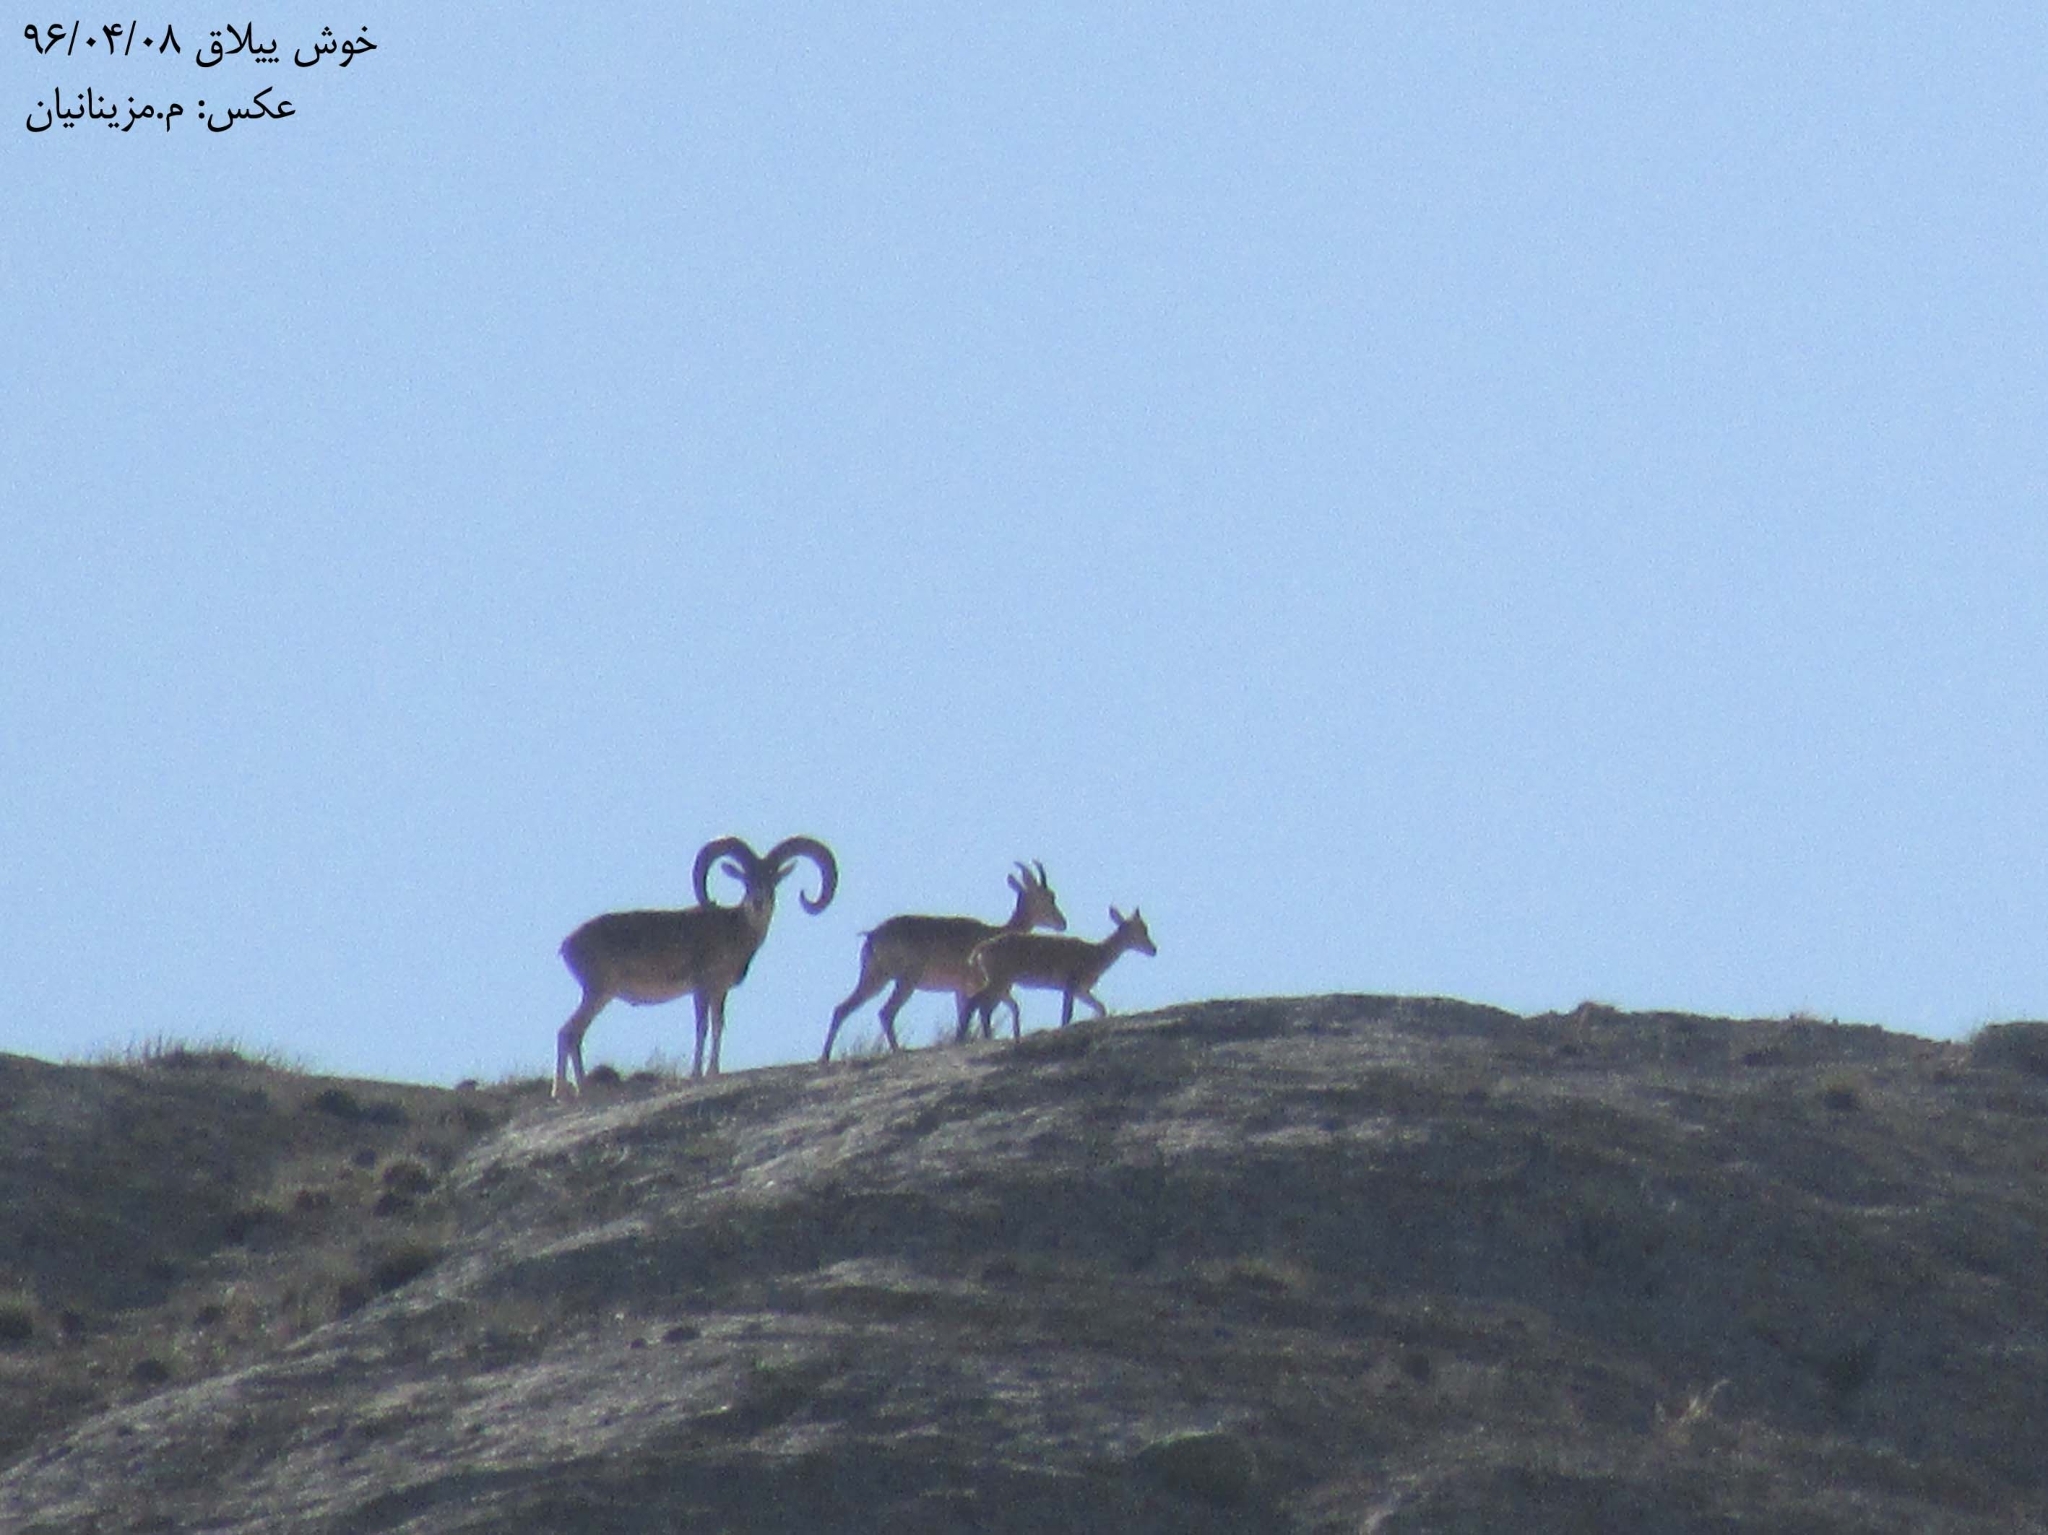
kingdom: Animalia
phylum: Chordata
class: Mammalia
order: Artiodactyla
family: Bovidae
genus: Ovis
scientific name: Ovis aries
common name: Domestic sheep
